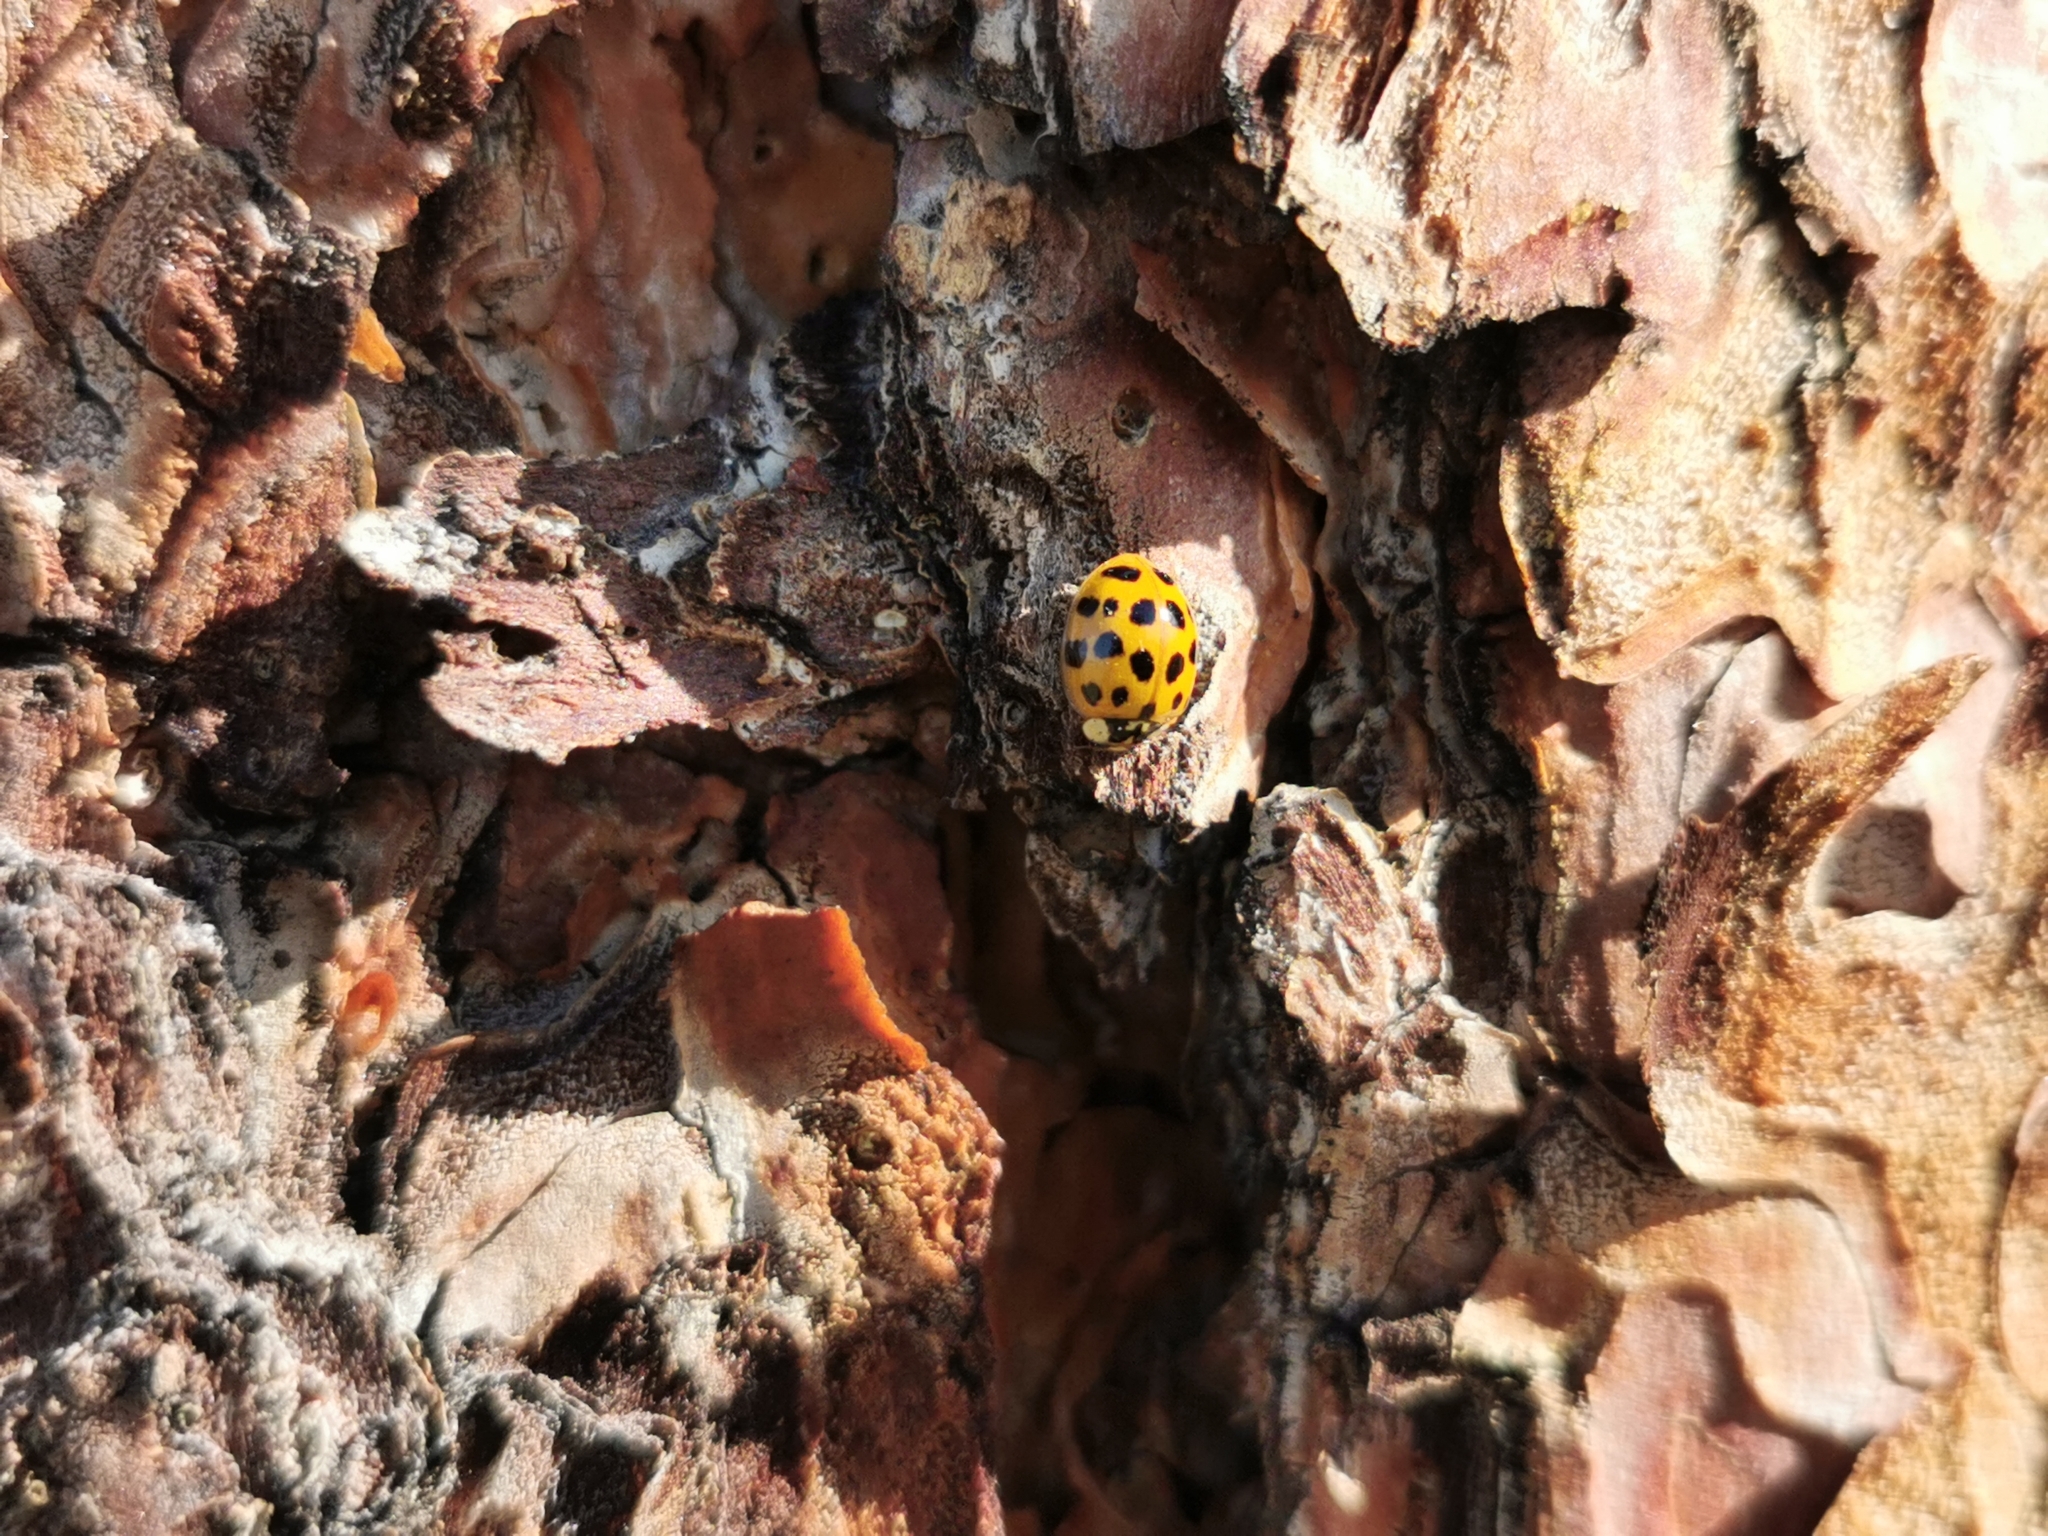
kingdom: Animalia
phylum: Arthropoda
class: Insecta
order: Coleoptera
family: Coccinellidae
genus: Harmonia
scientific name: Harmonia axyridis
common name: Harlequin ladybird
